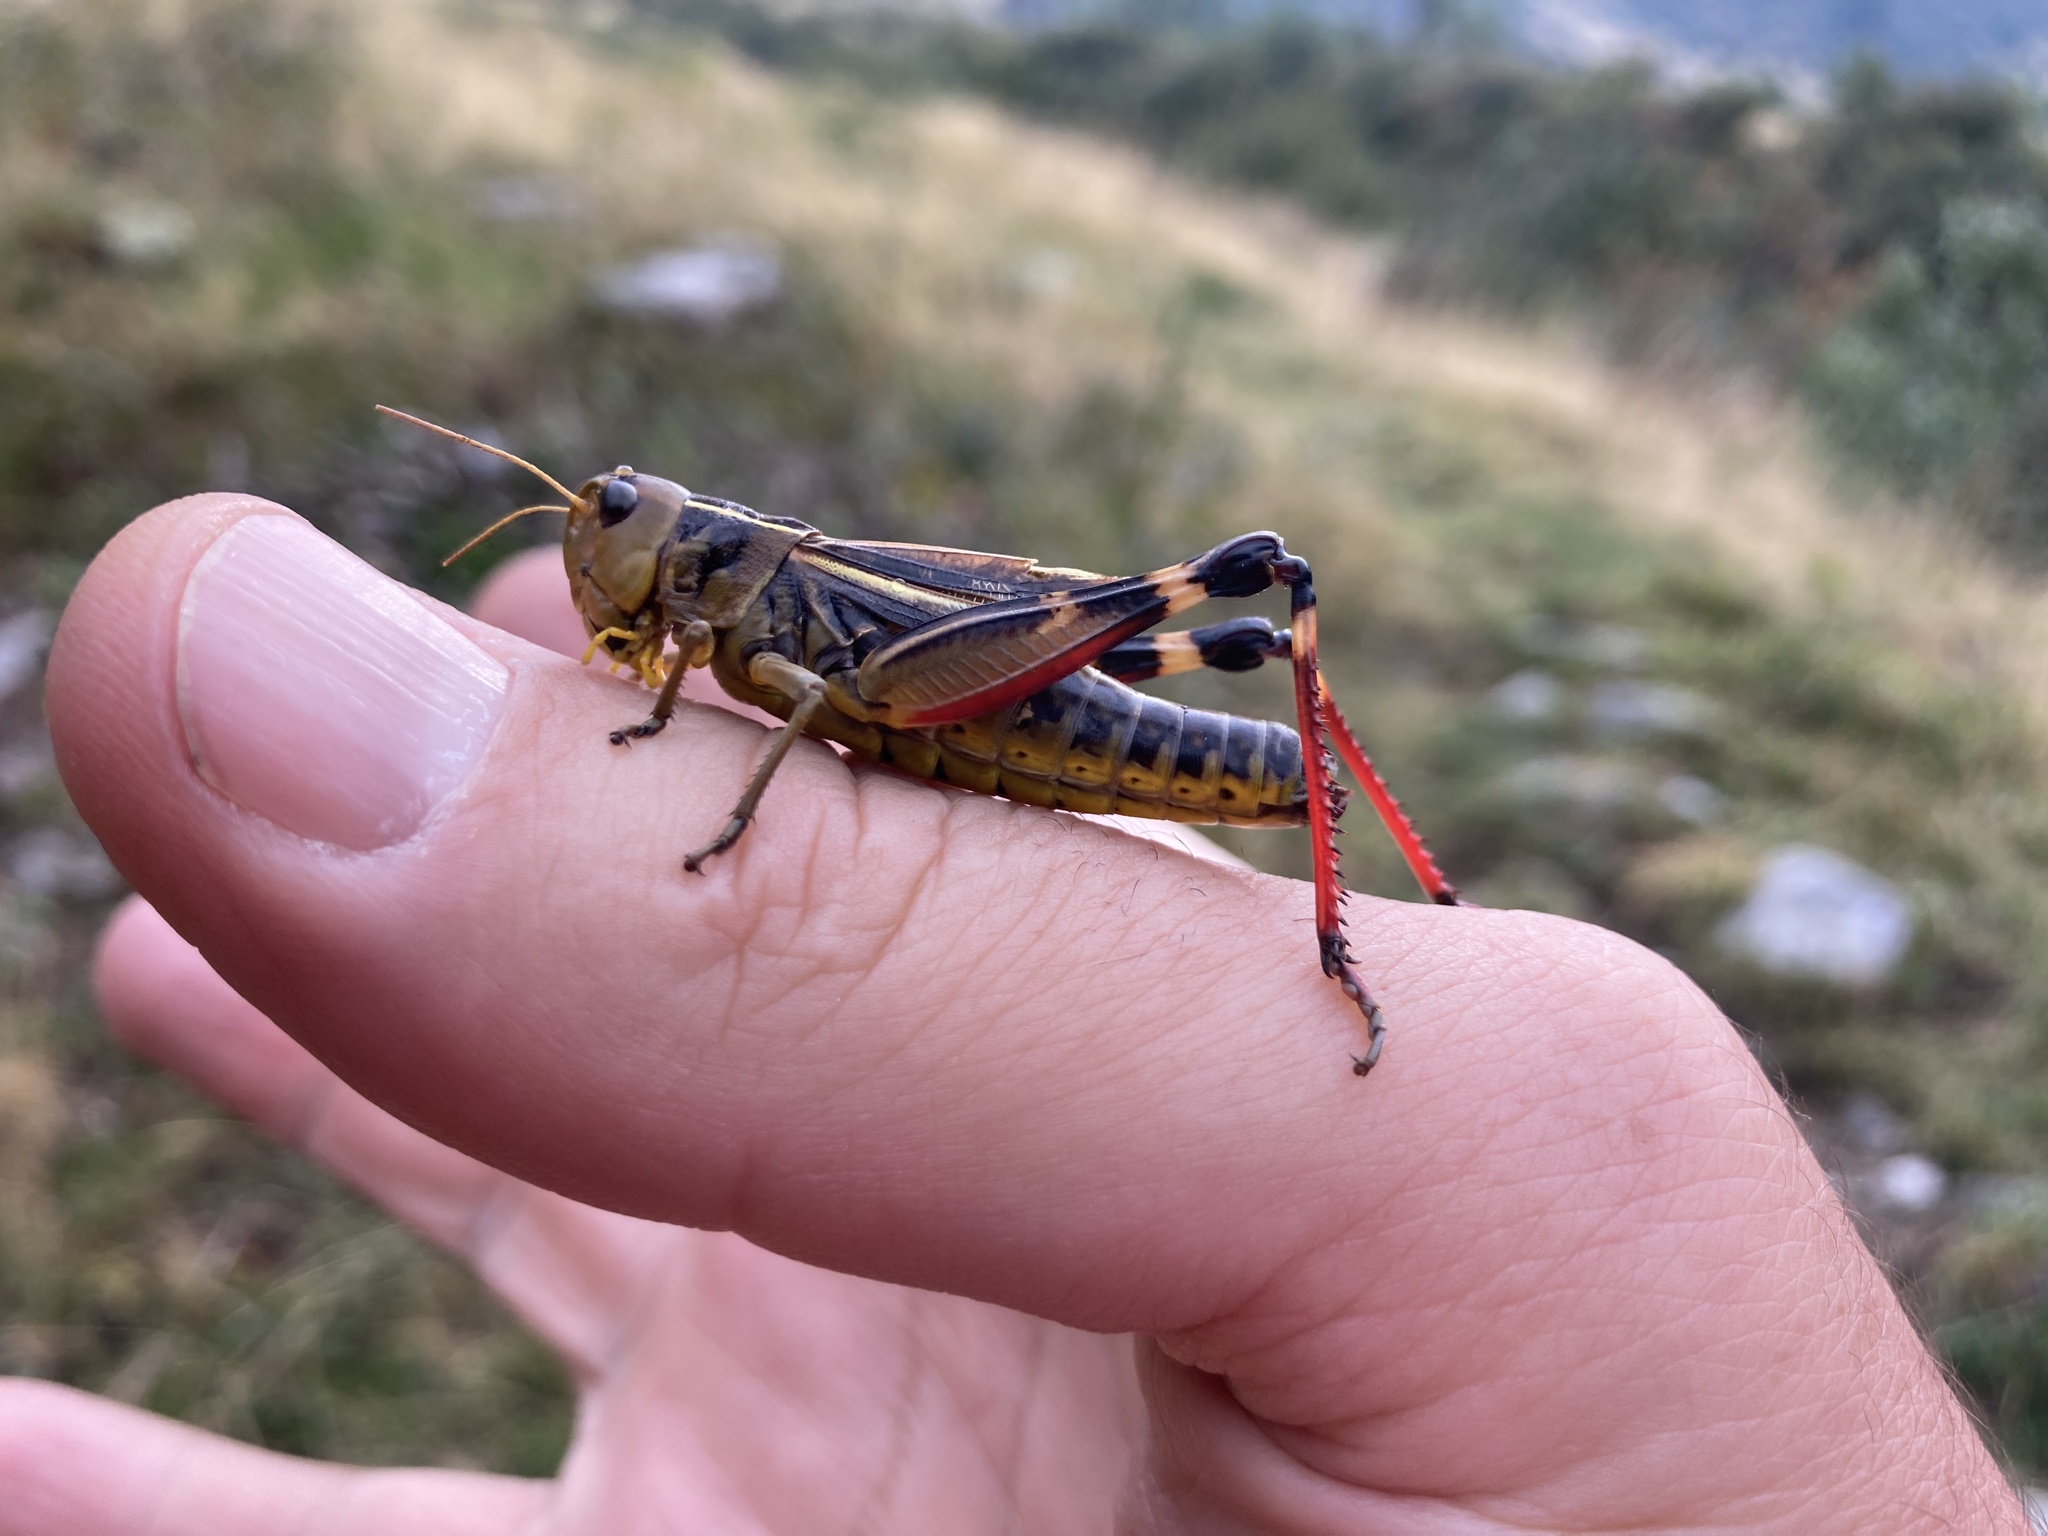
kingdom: Animalia
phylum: Arthropoda
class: Insecta
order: Orthoptera
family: Acrididae
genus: Arcyptera
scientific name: Arcyptera fusca
